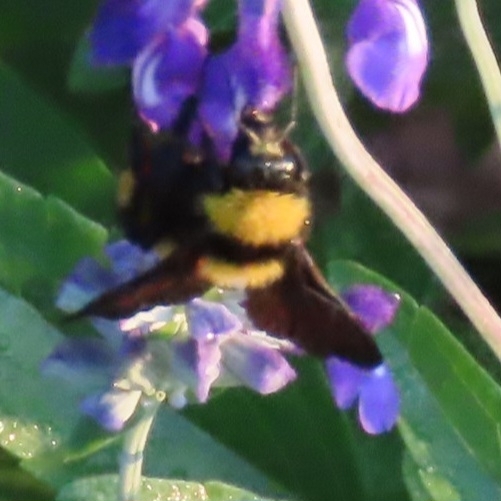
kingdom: Animalia
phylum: Arthropoda
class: Insecta
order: Hymenoptera
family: Apidae
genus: Bombus
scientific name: Bombus sonorus
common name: Sonoran bumble bee
